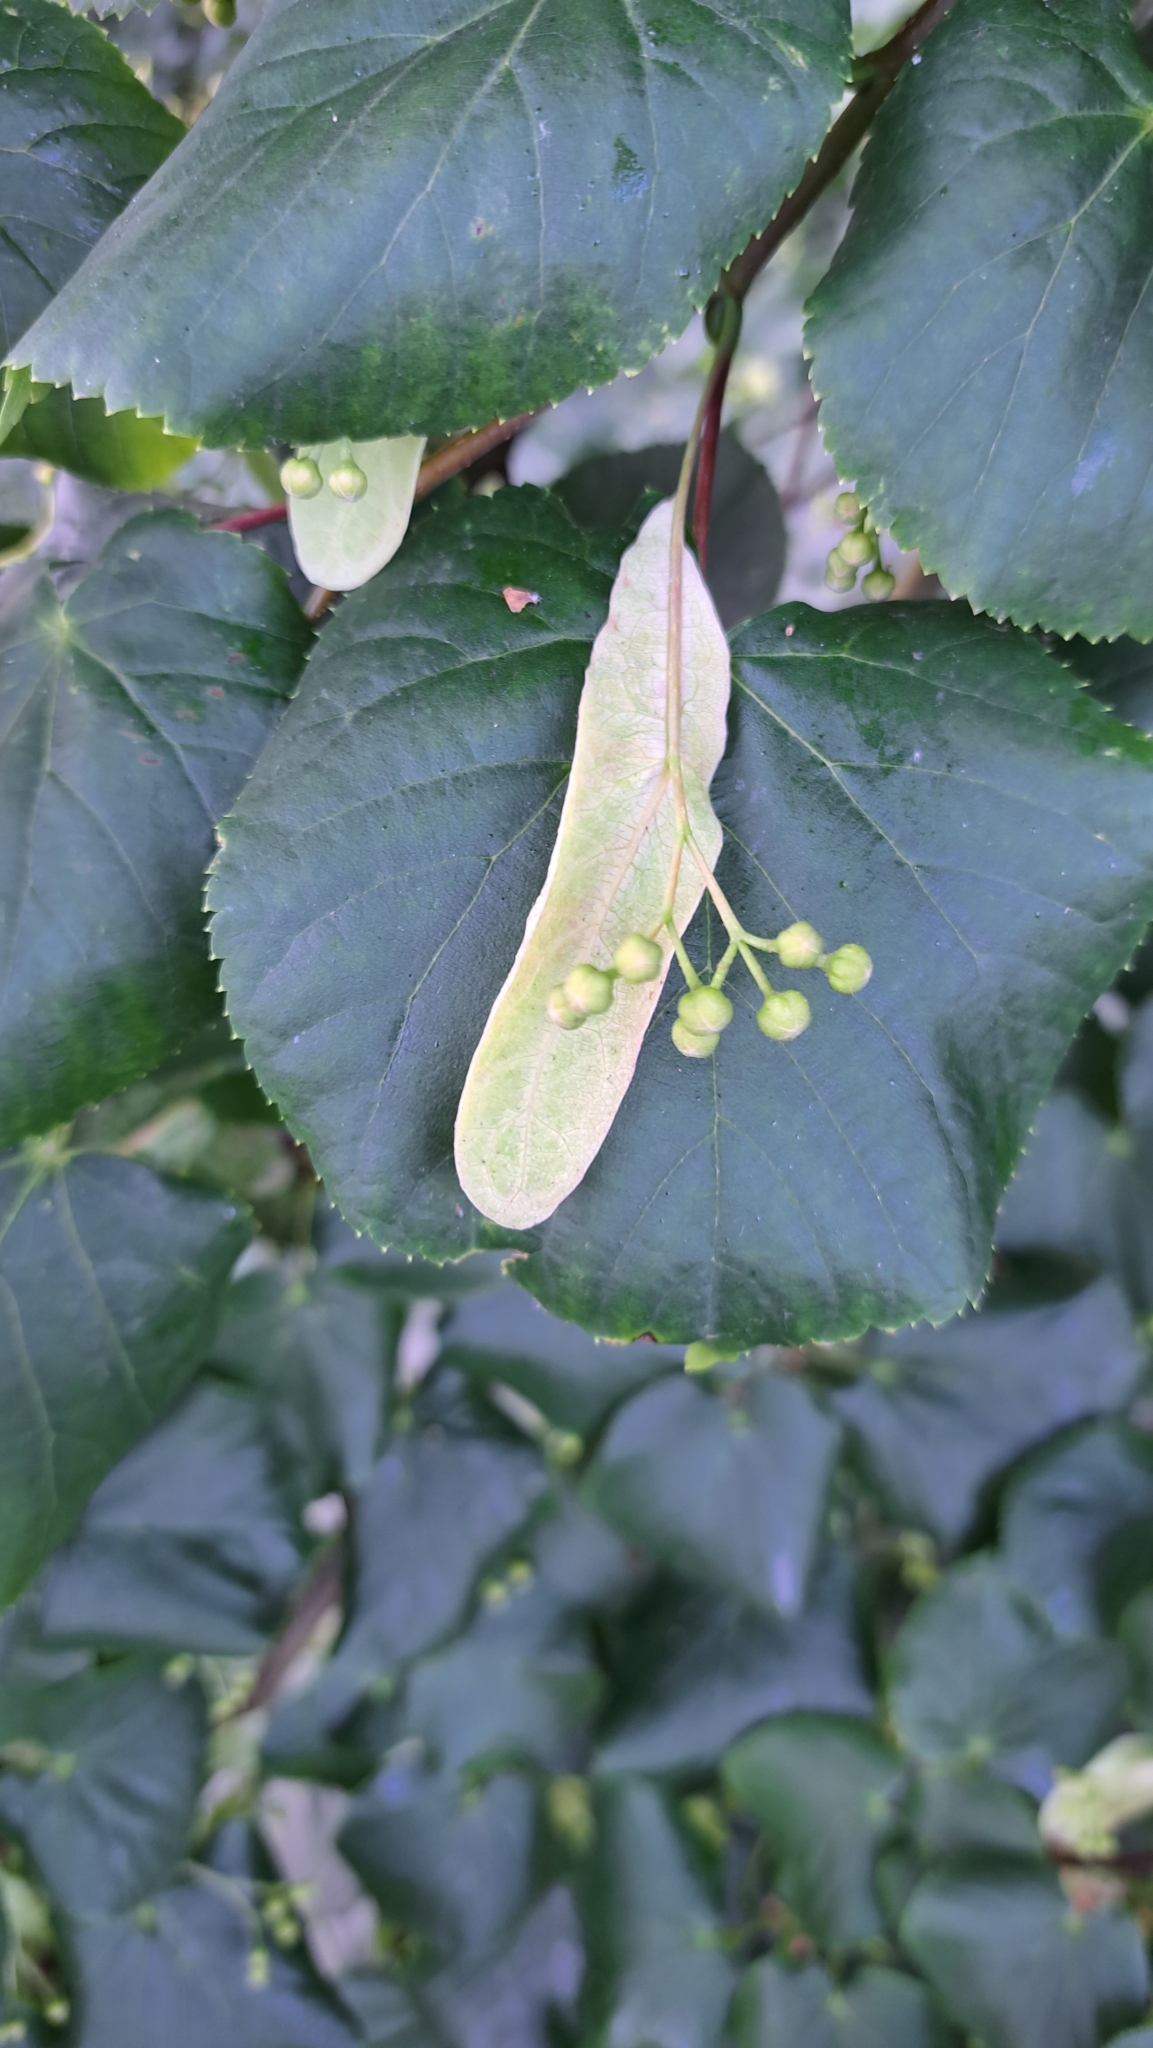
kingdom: Plantae
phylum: Tracheophyta
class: Magnoliopsida
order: Malvales
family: Malvaceae
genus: Tilia
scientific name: Tilia cordata
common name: Small-leaved lime
